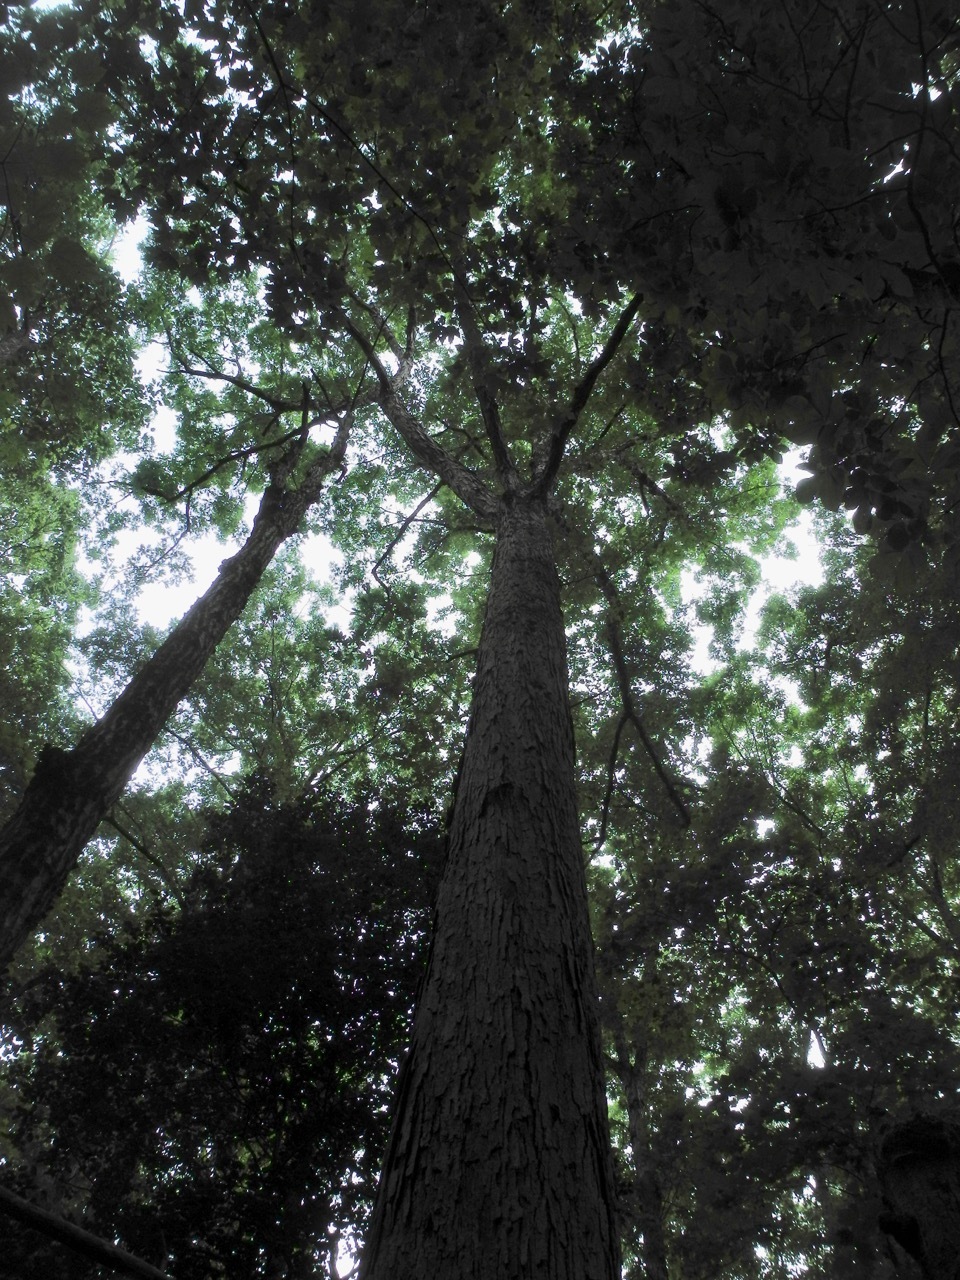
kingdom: Plantae
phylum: Tracheophyta
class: Magnoliopsida
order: Fagales
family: Fagaceae
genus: Quercus
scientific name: Quercus alba
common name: White oak
